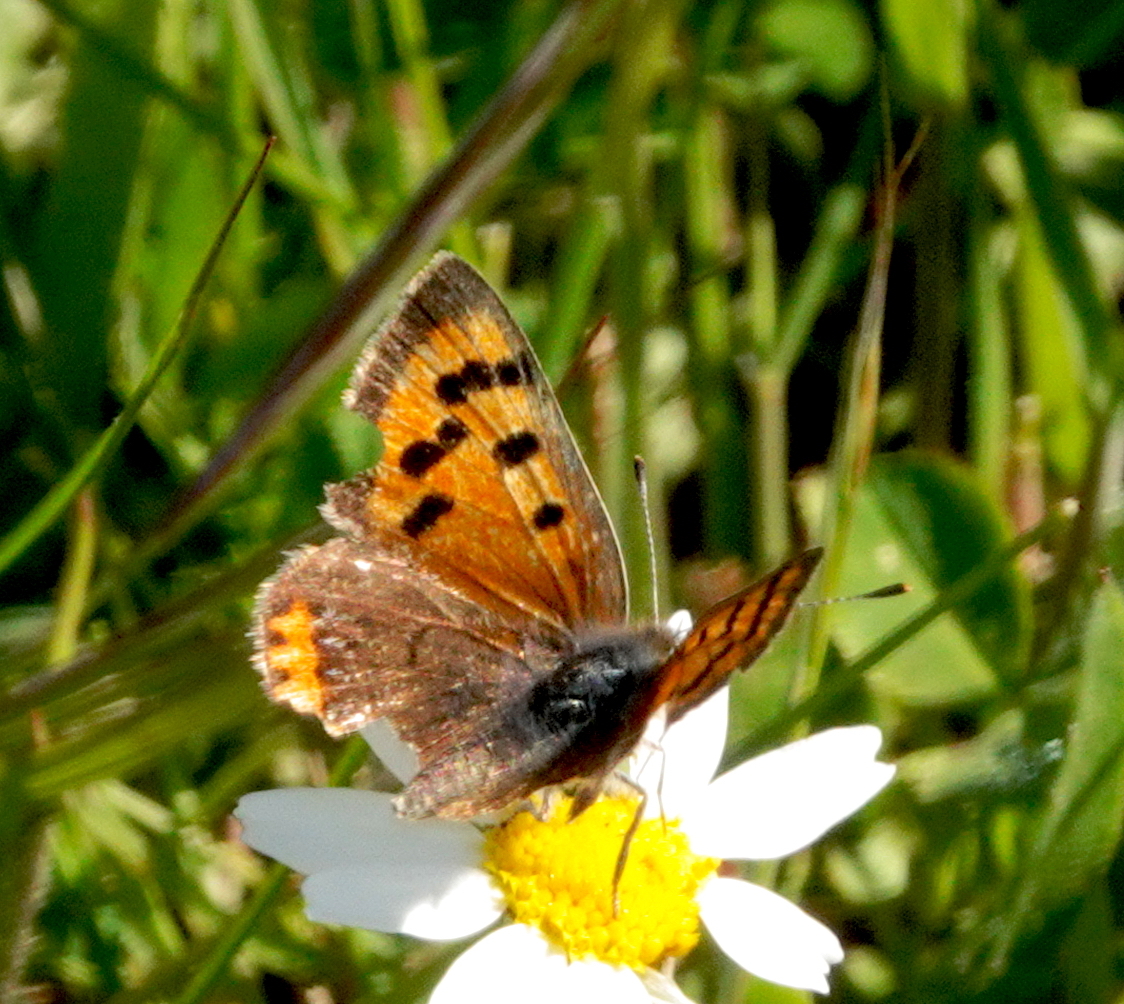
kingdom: Animalia
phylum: Arthropoda
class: Insecta
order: Lepidoptera
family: Lycaenidae
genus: Lycaena
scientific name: Lycaena phlaeas
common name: Small copper
